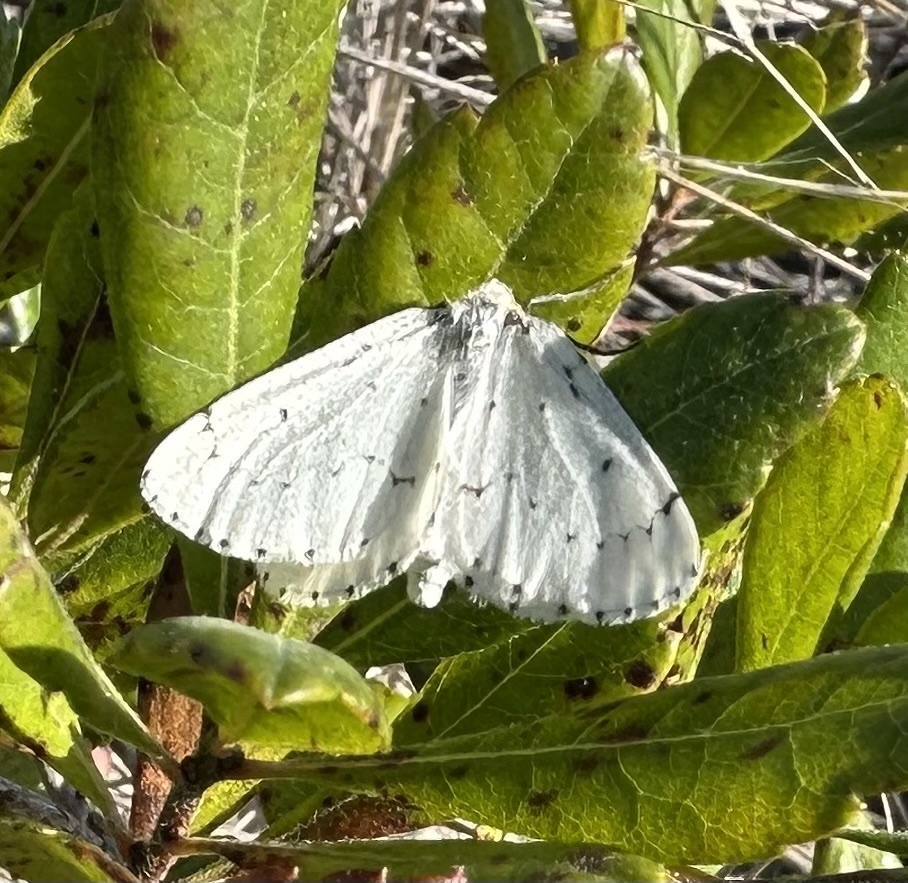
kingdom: Animalia
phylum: Arthropoda
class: Insecta
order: Lepidoptera
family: Geometridae
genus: Cingilia
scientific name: Cingilia catenaria
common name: Chain-dotted geometer
